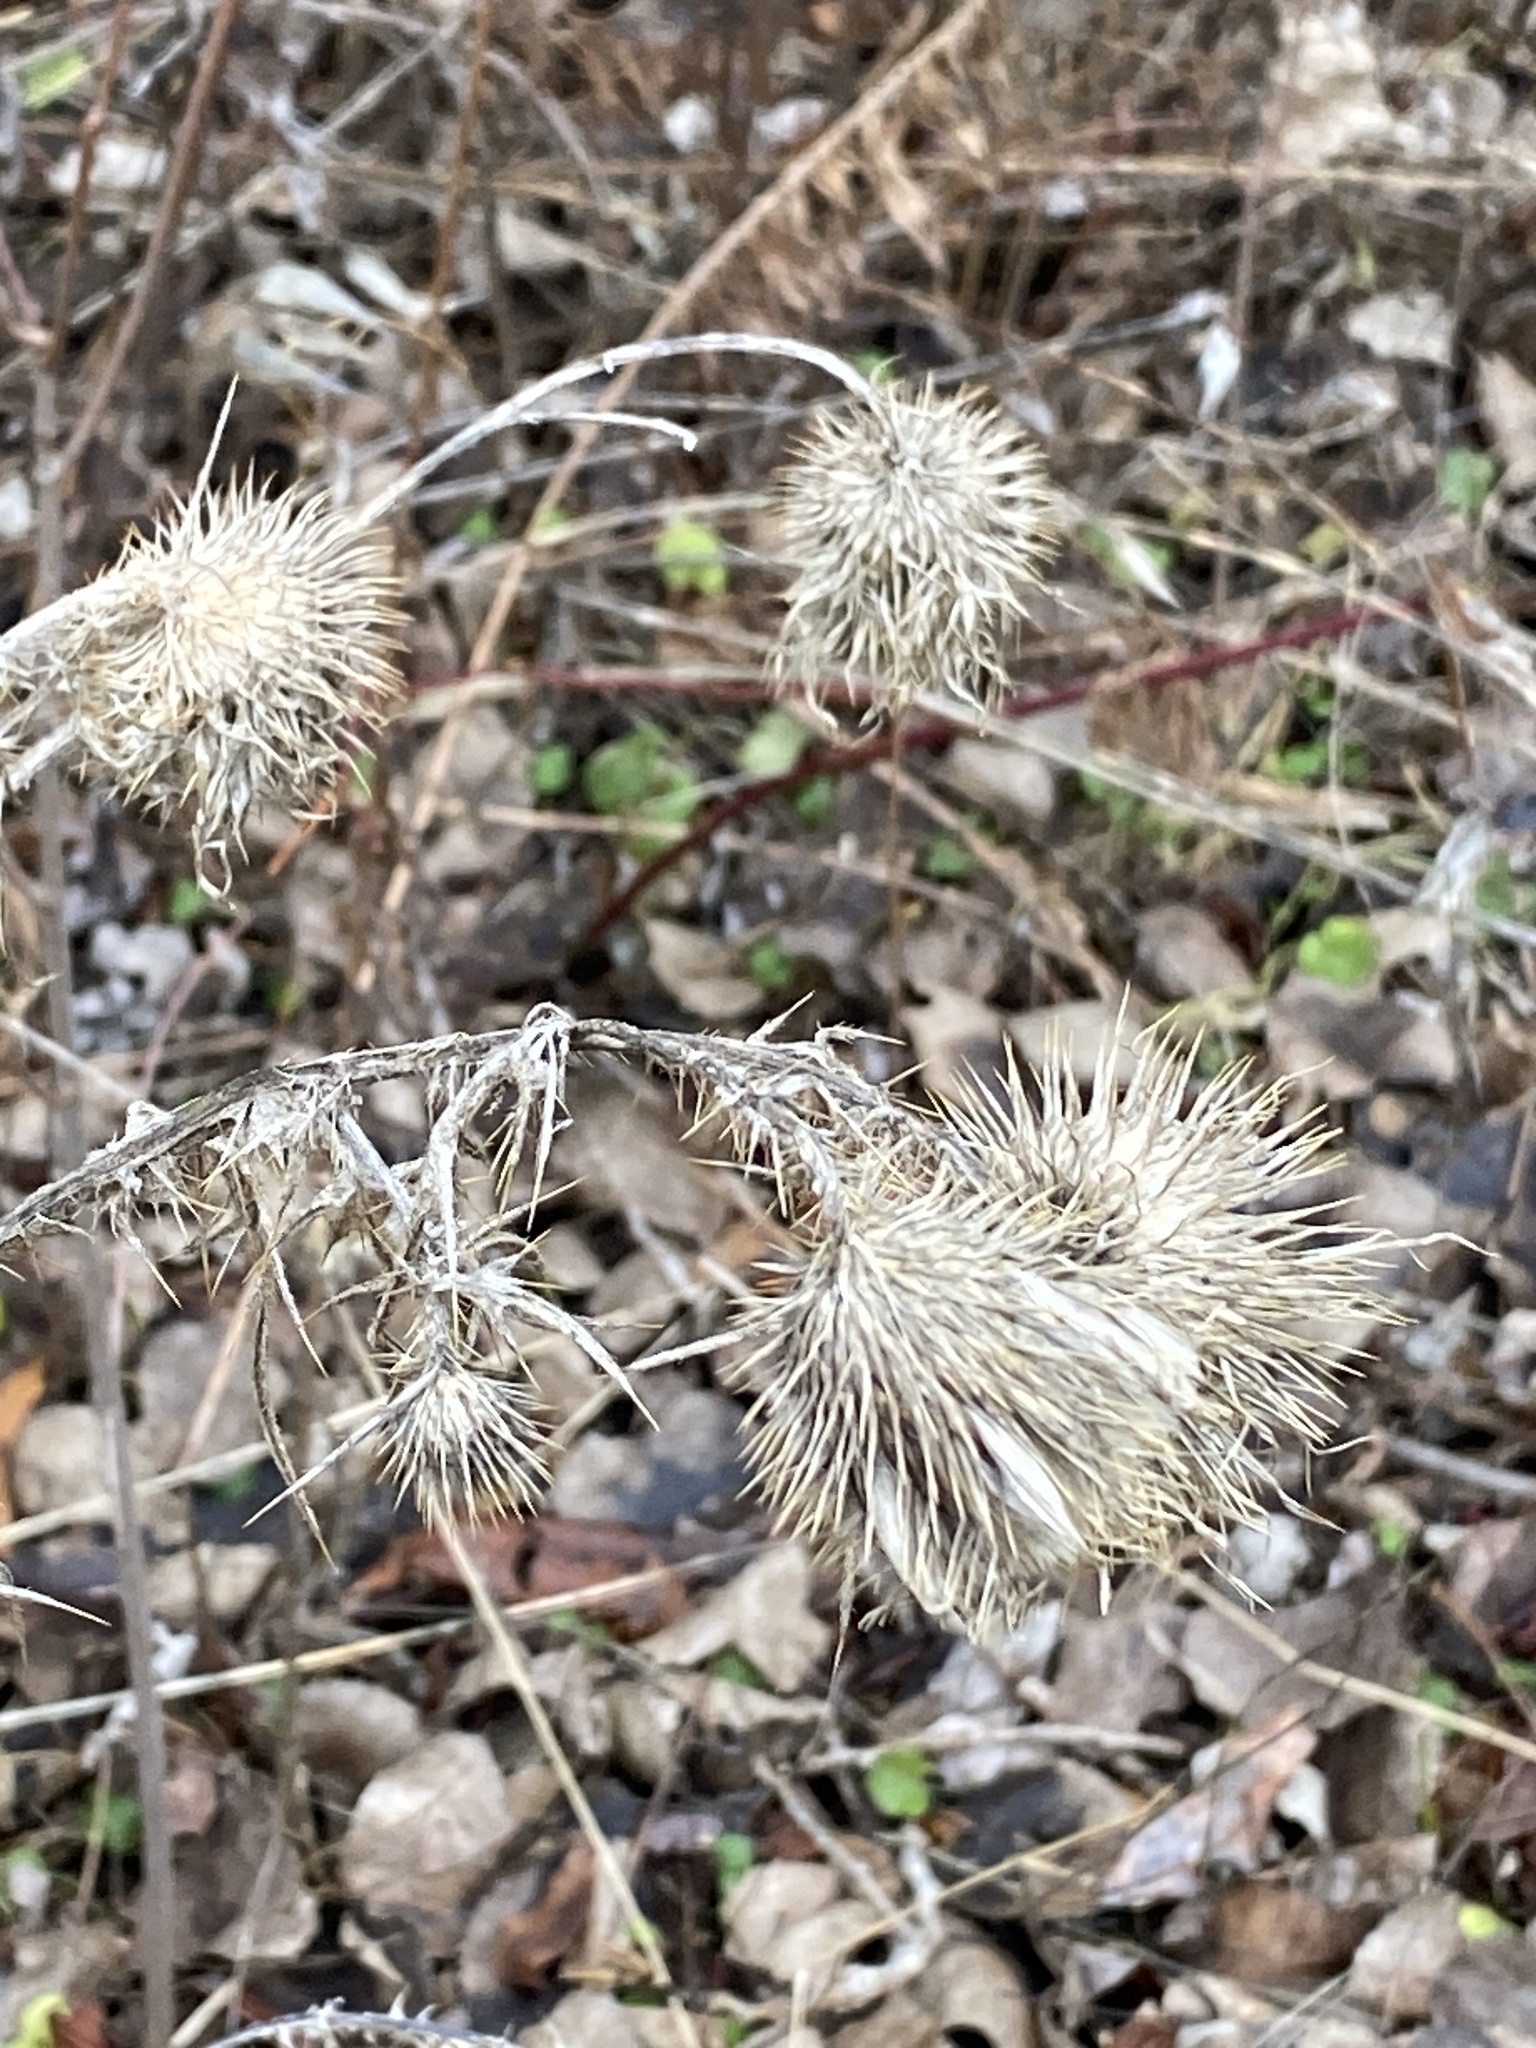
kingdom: Plantae
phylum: Tracheophyta
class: Magnoliopsida
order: Asterales
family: Asteraceae
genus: Cirsium
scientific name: Cirsium vulgare
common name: Bull thistle
